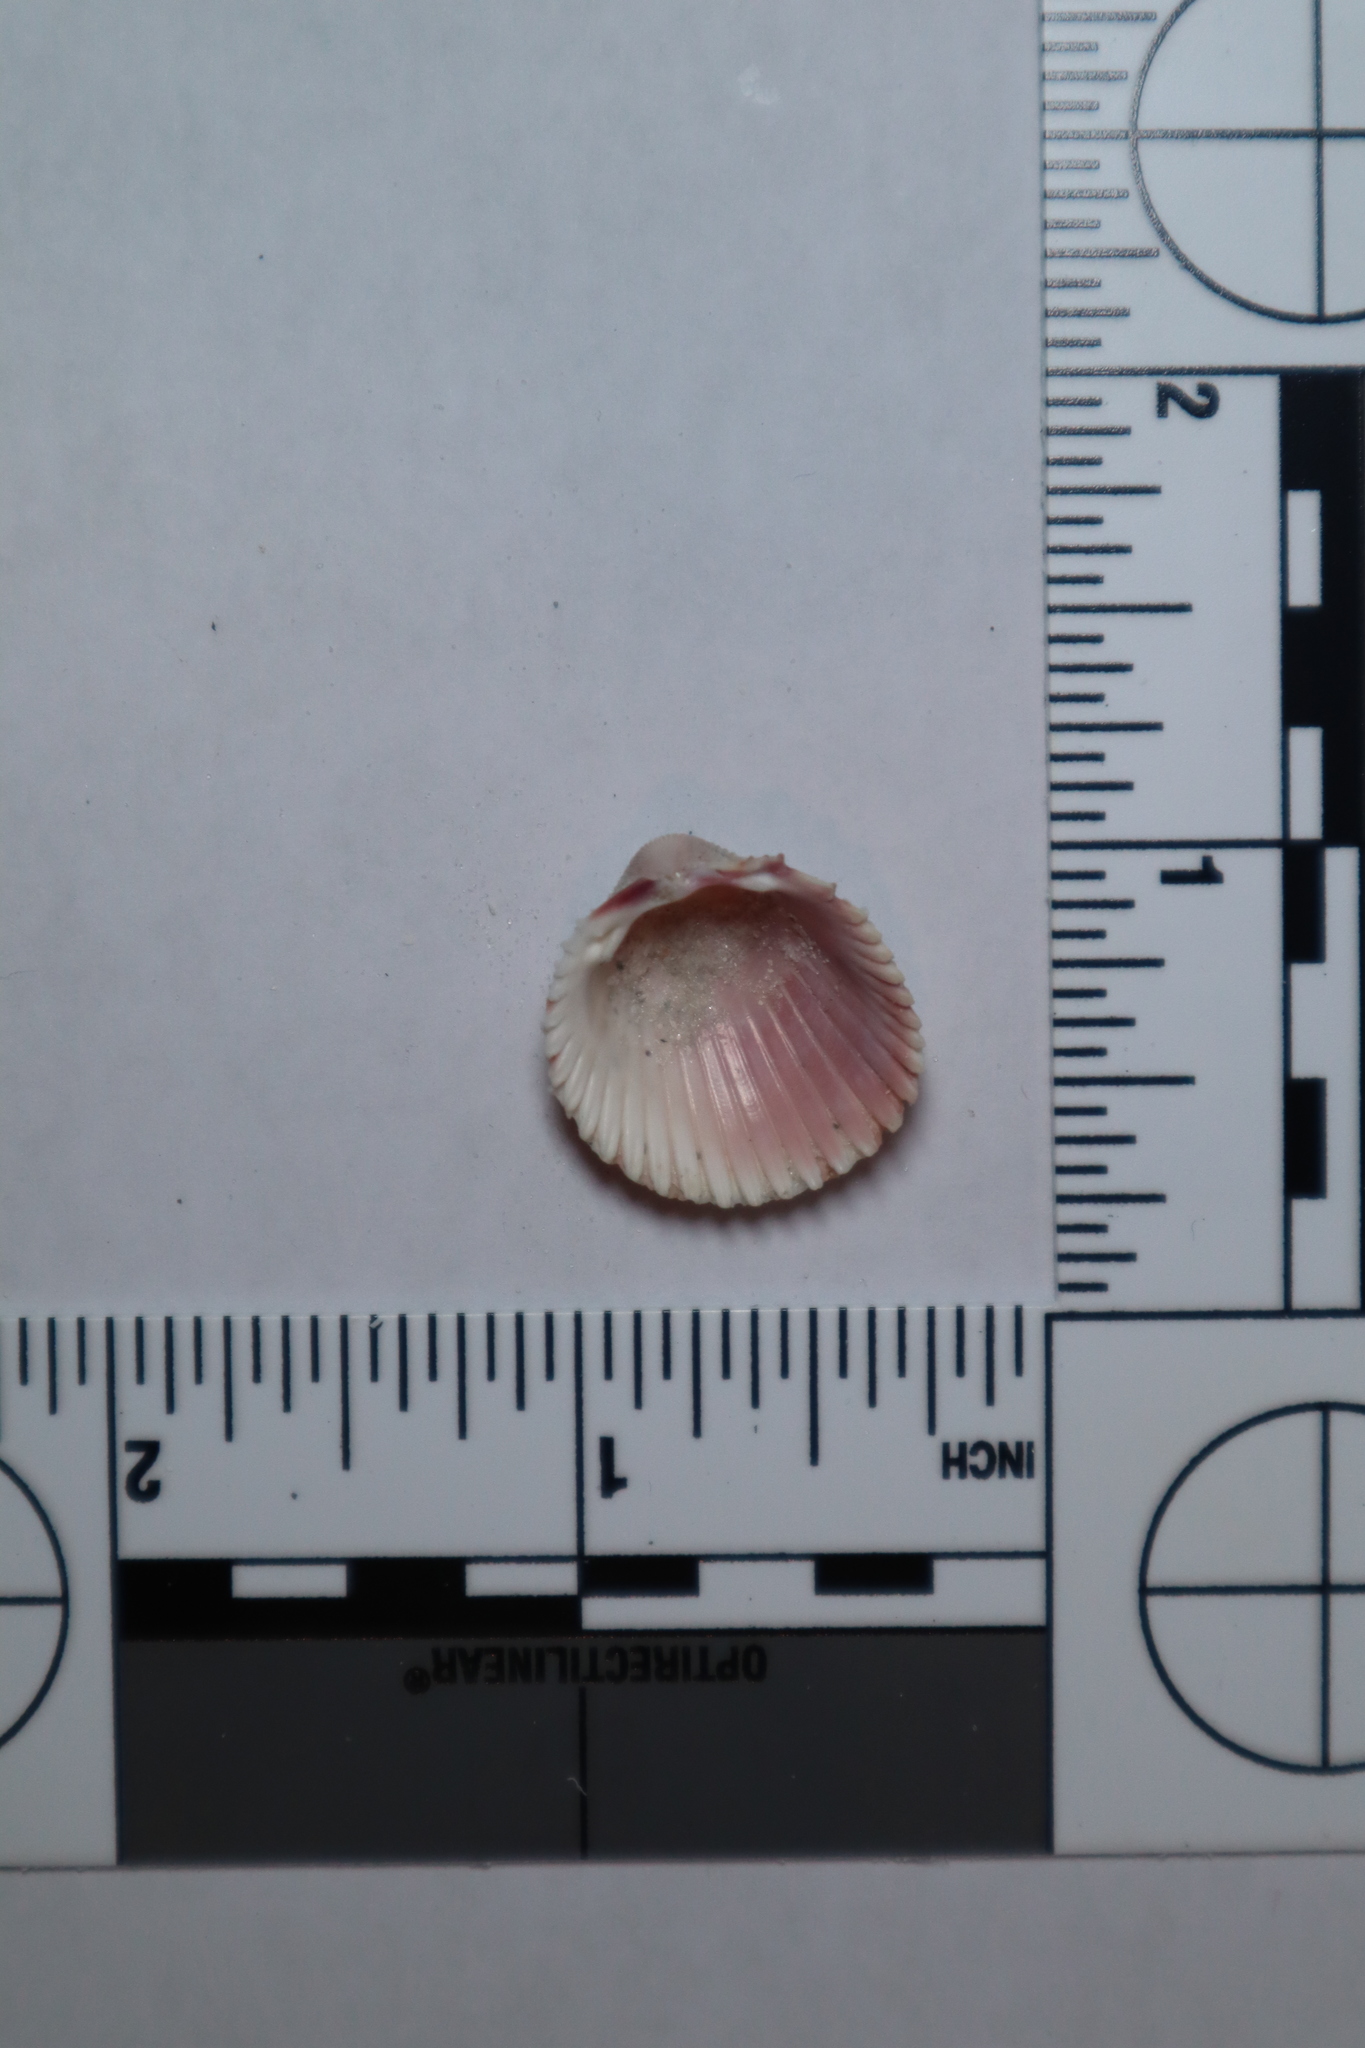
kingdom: Animalia
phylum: Mollusca
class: Bivalvia
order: Cardiida
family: Cardiidae
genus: Dallocardia
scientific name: Dallocardia muricata
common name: Yellow pricklycockle
